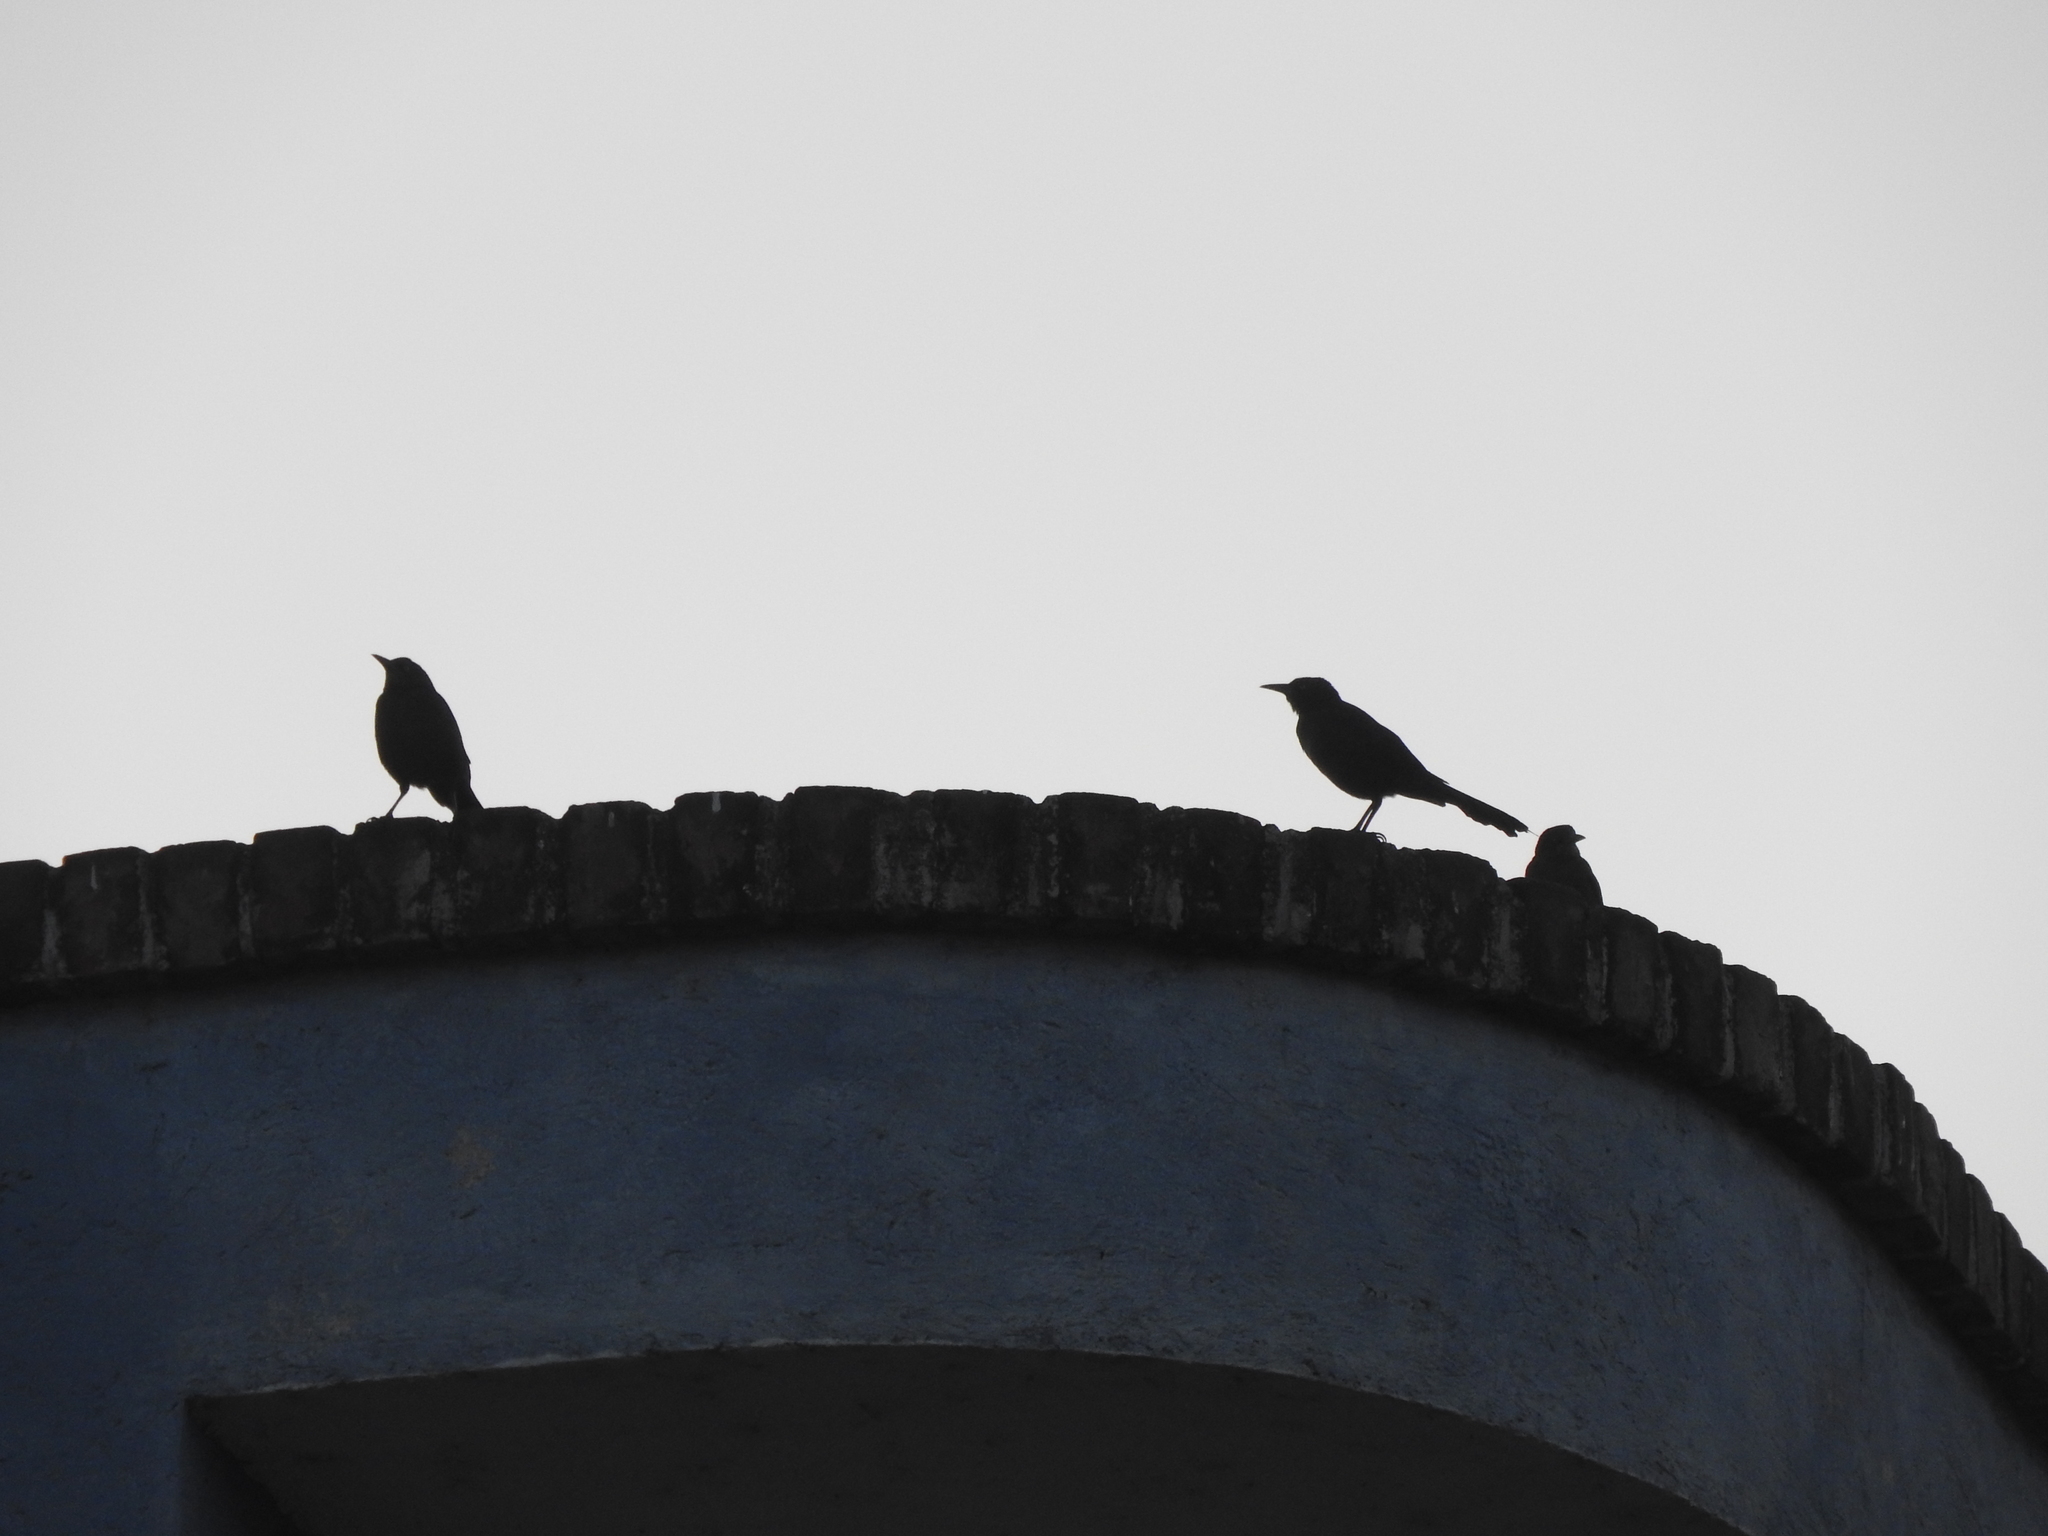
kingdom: Animalia
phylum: Chordata
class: Aves
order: Passeriformes
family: Icteridae
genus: Quiscalus
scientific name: Quiscalus mexicanus
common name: Great-tailed grackle
